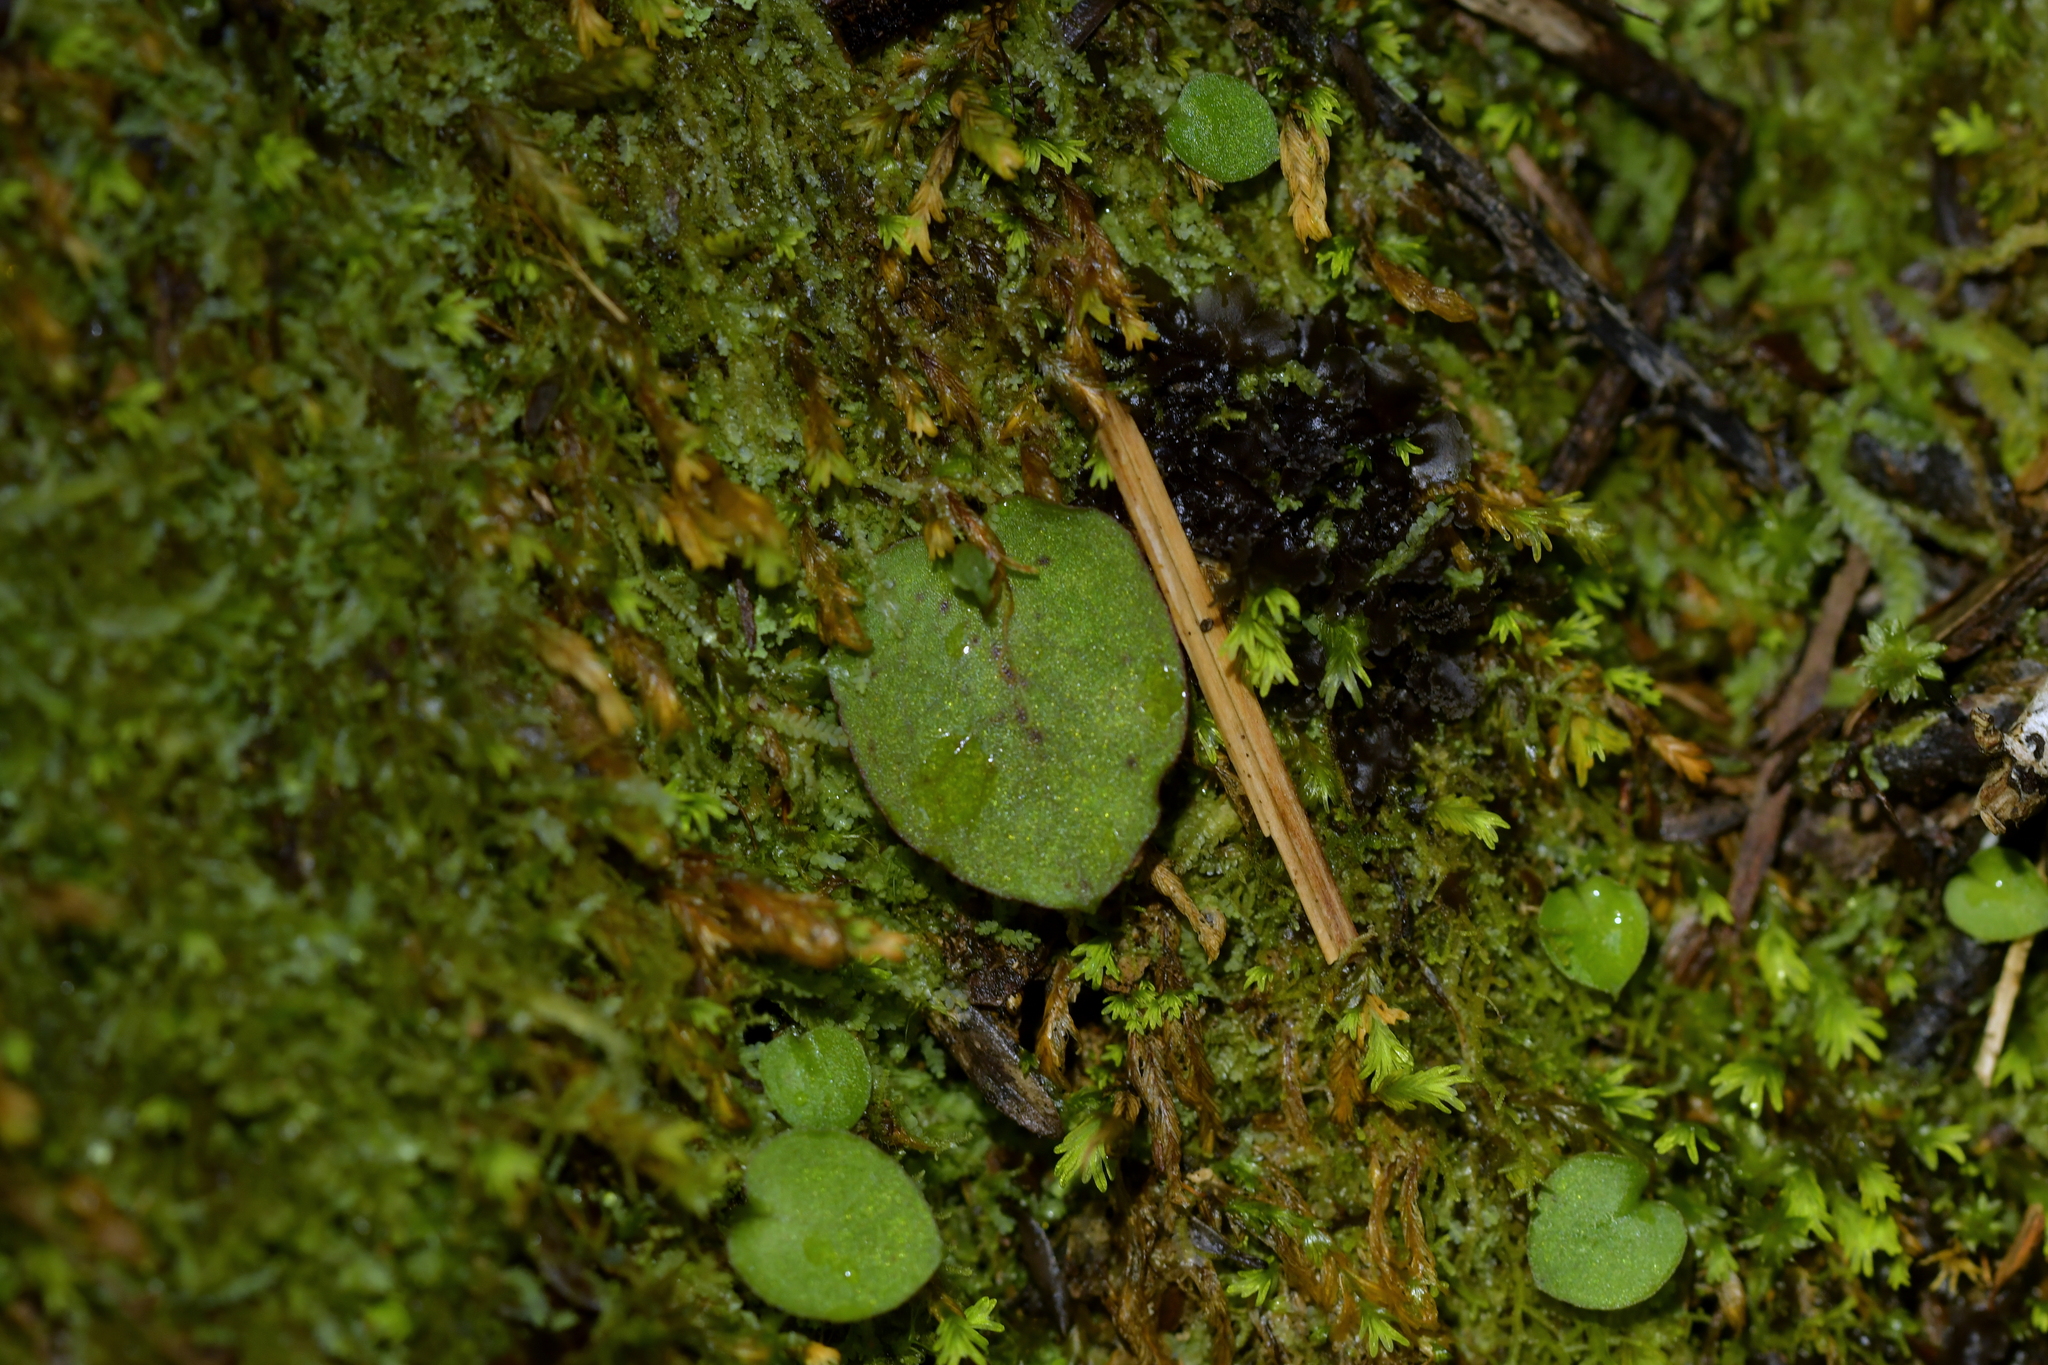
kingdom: Plantae
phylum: Tracheophyta
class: Liliopsida
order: Asparagales
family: Orchidaceae
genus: Corybas
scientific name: Corybas oblongus
